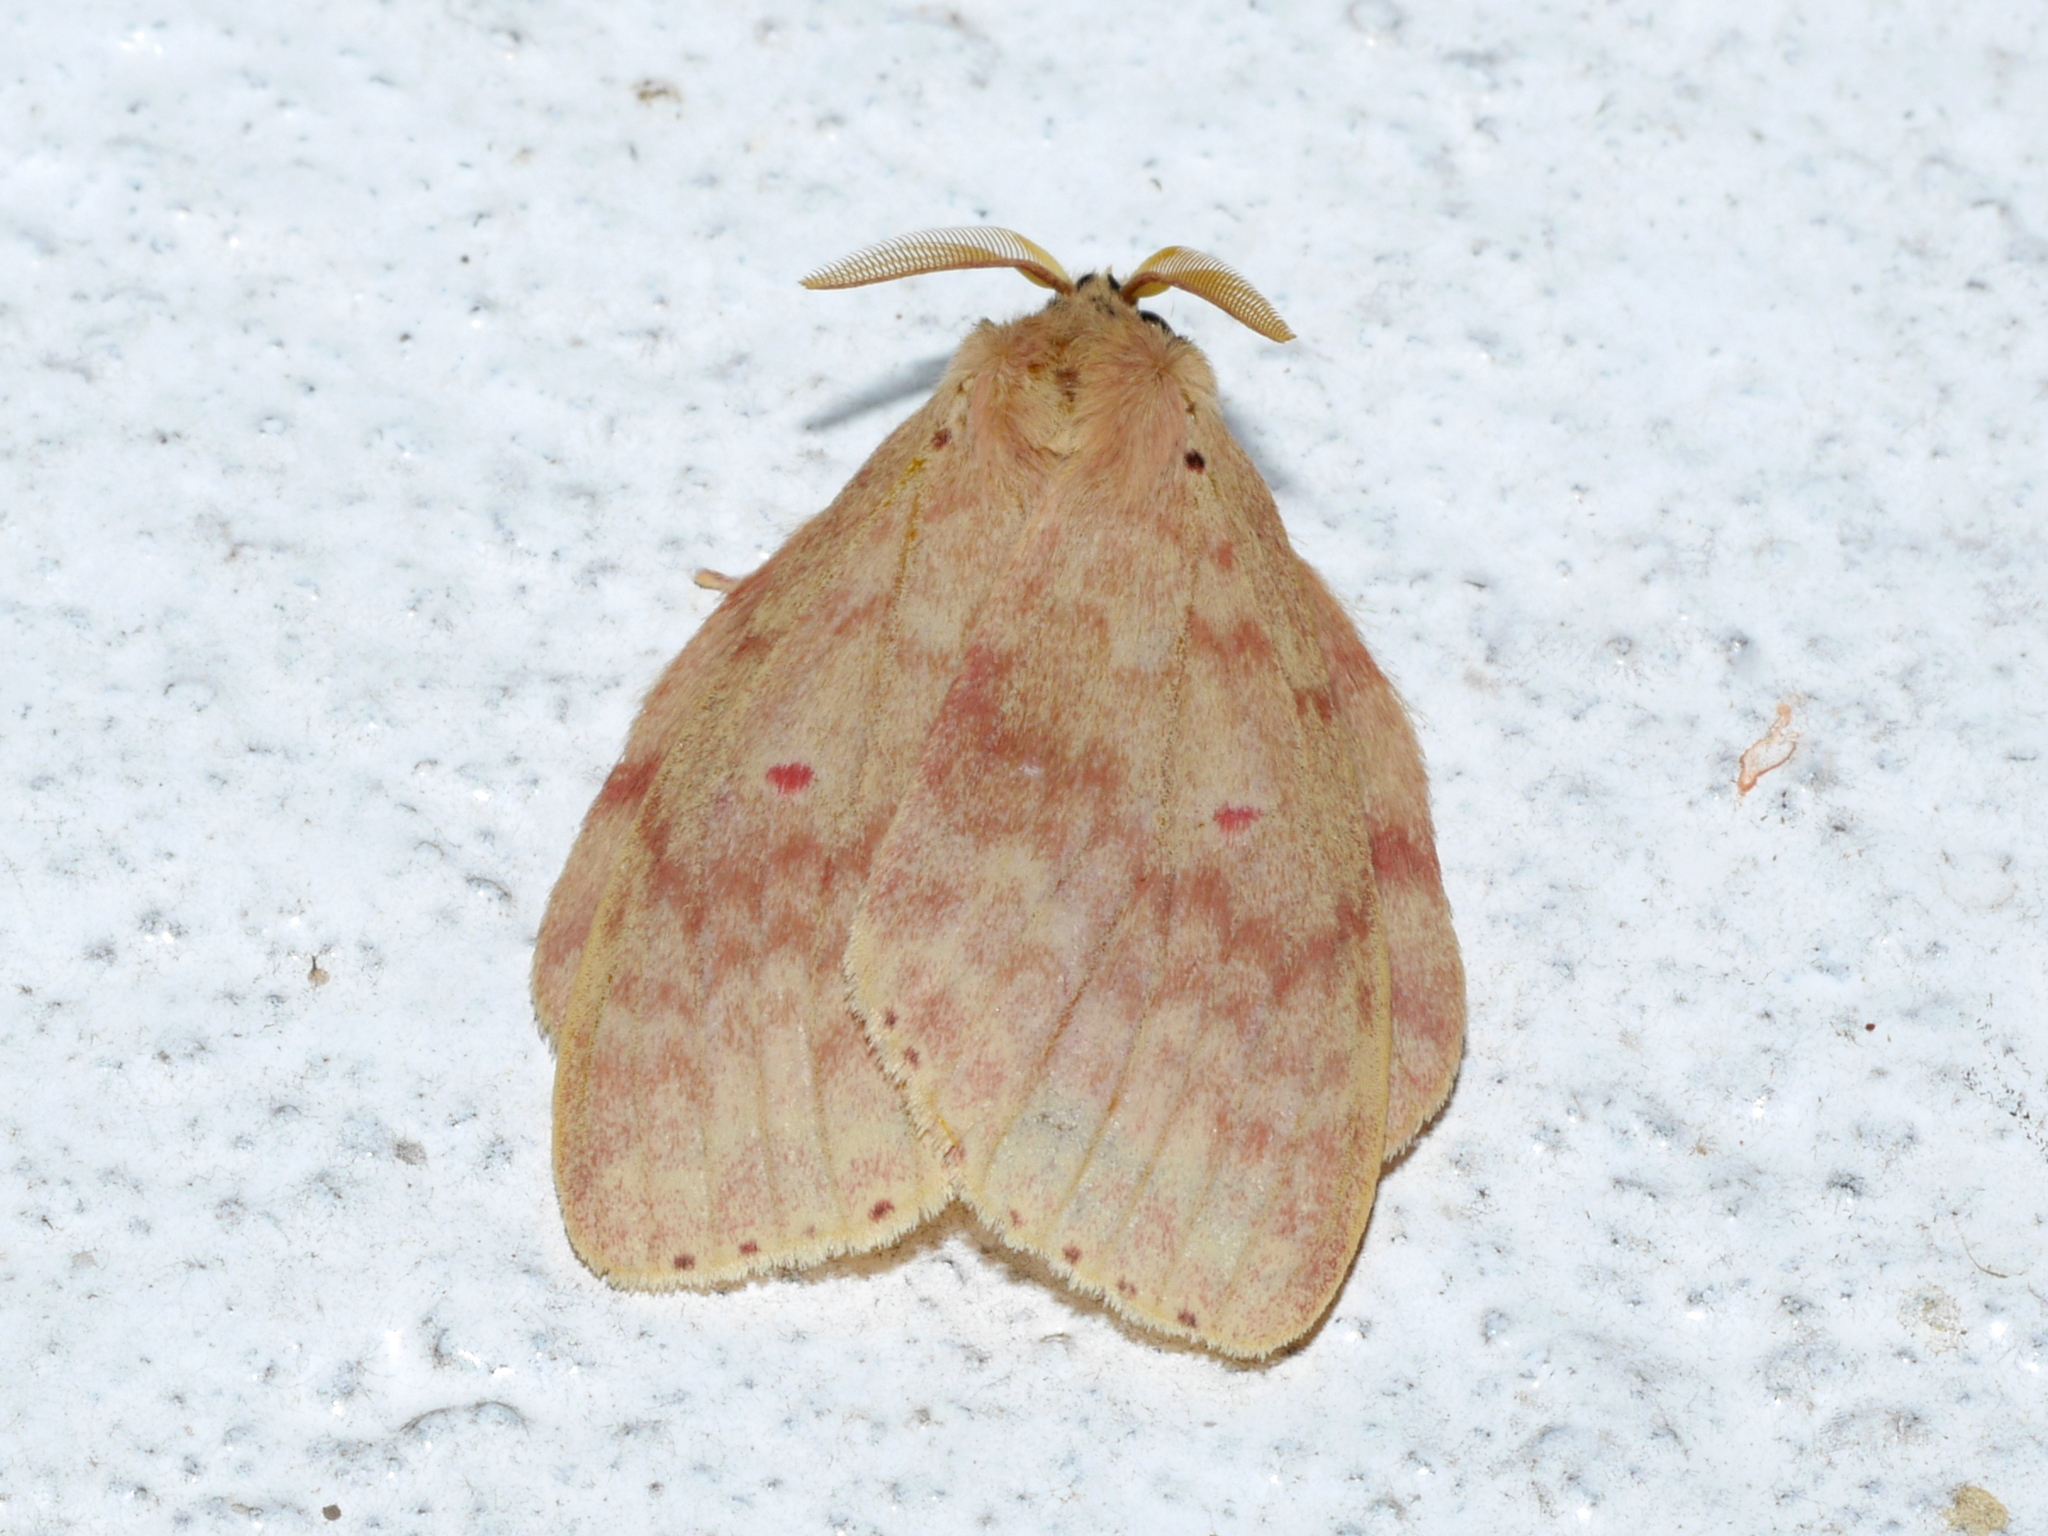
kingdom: Animalia
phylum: Arthropoda
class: Insecta
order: Lepidoptera
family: Notodontidae
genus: Catarctia
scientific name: Catarctia biseriata
